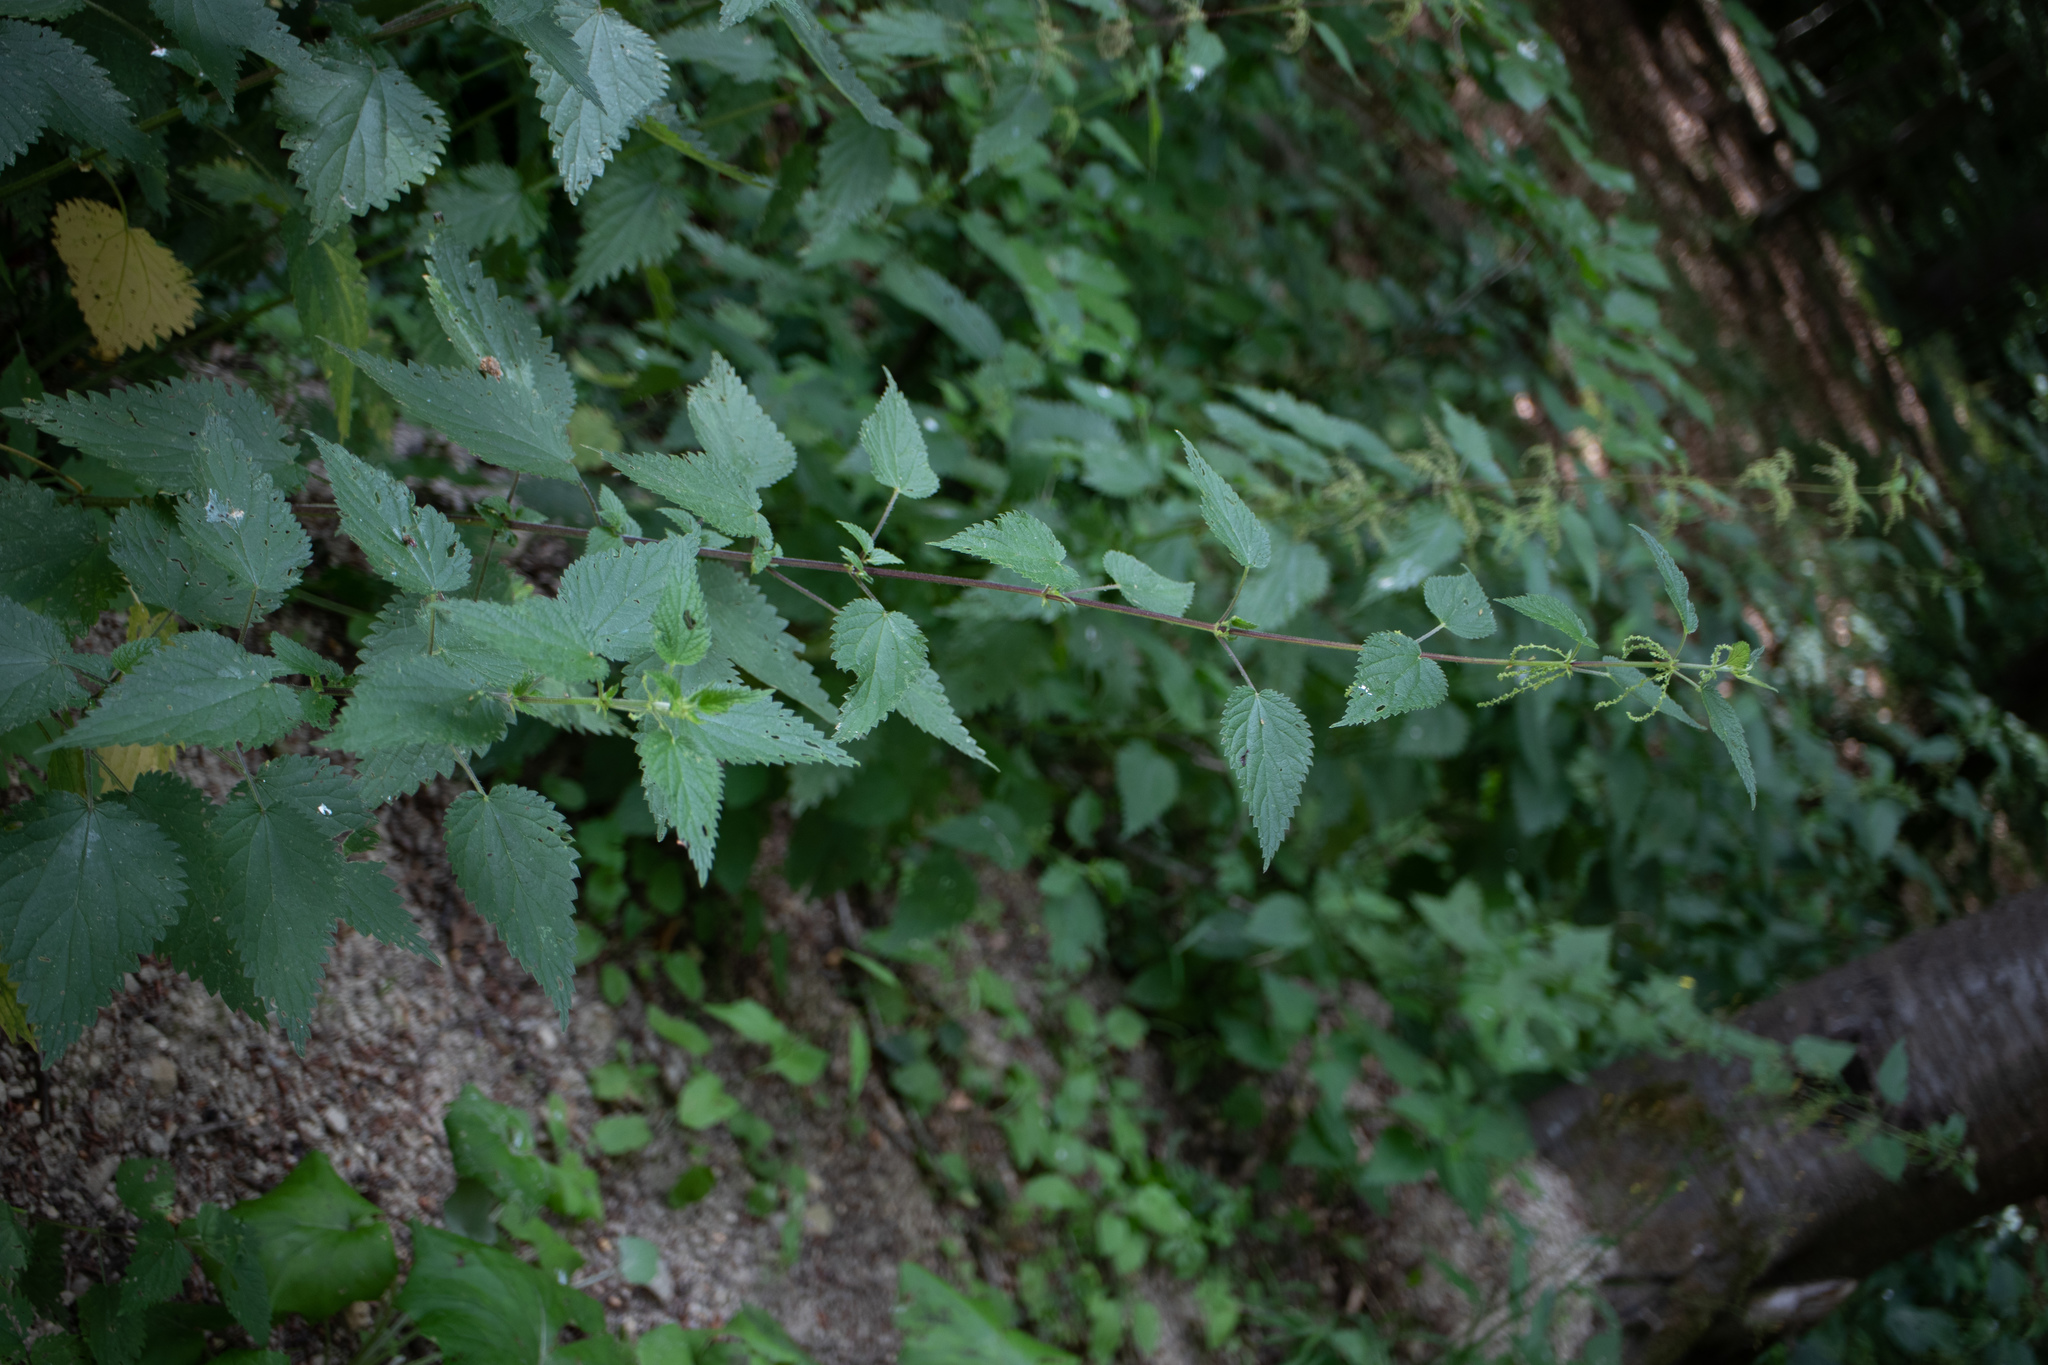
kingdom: Plantae
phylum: Tracheophyta
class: Magnoliopsida
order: Rosales
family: Urticaceae
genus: Urtica
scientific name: Urtica dioica
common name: Common nettle
